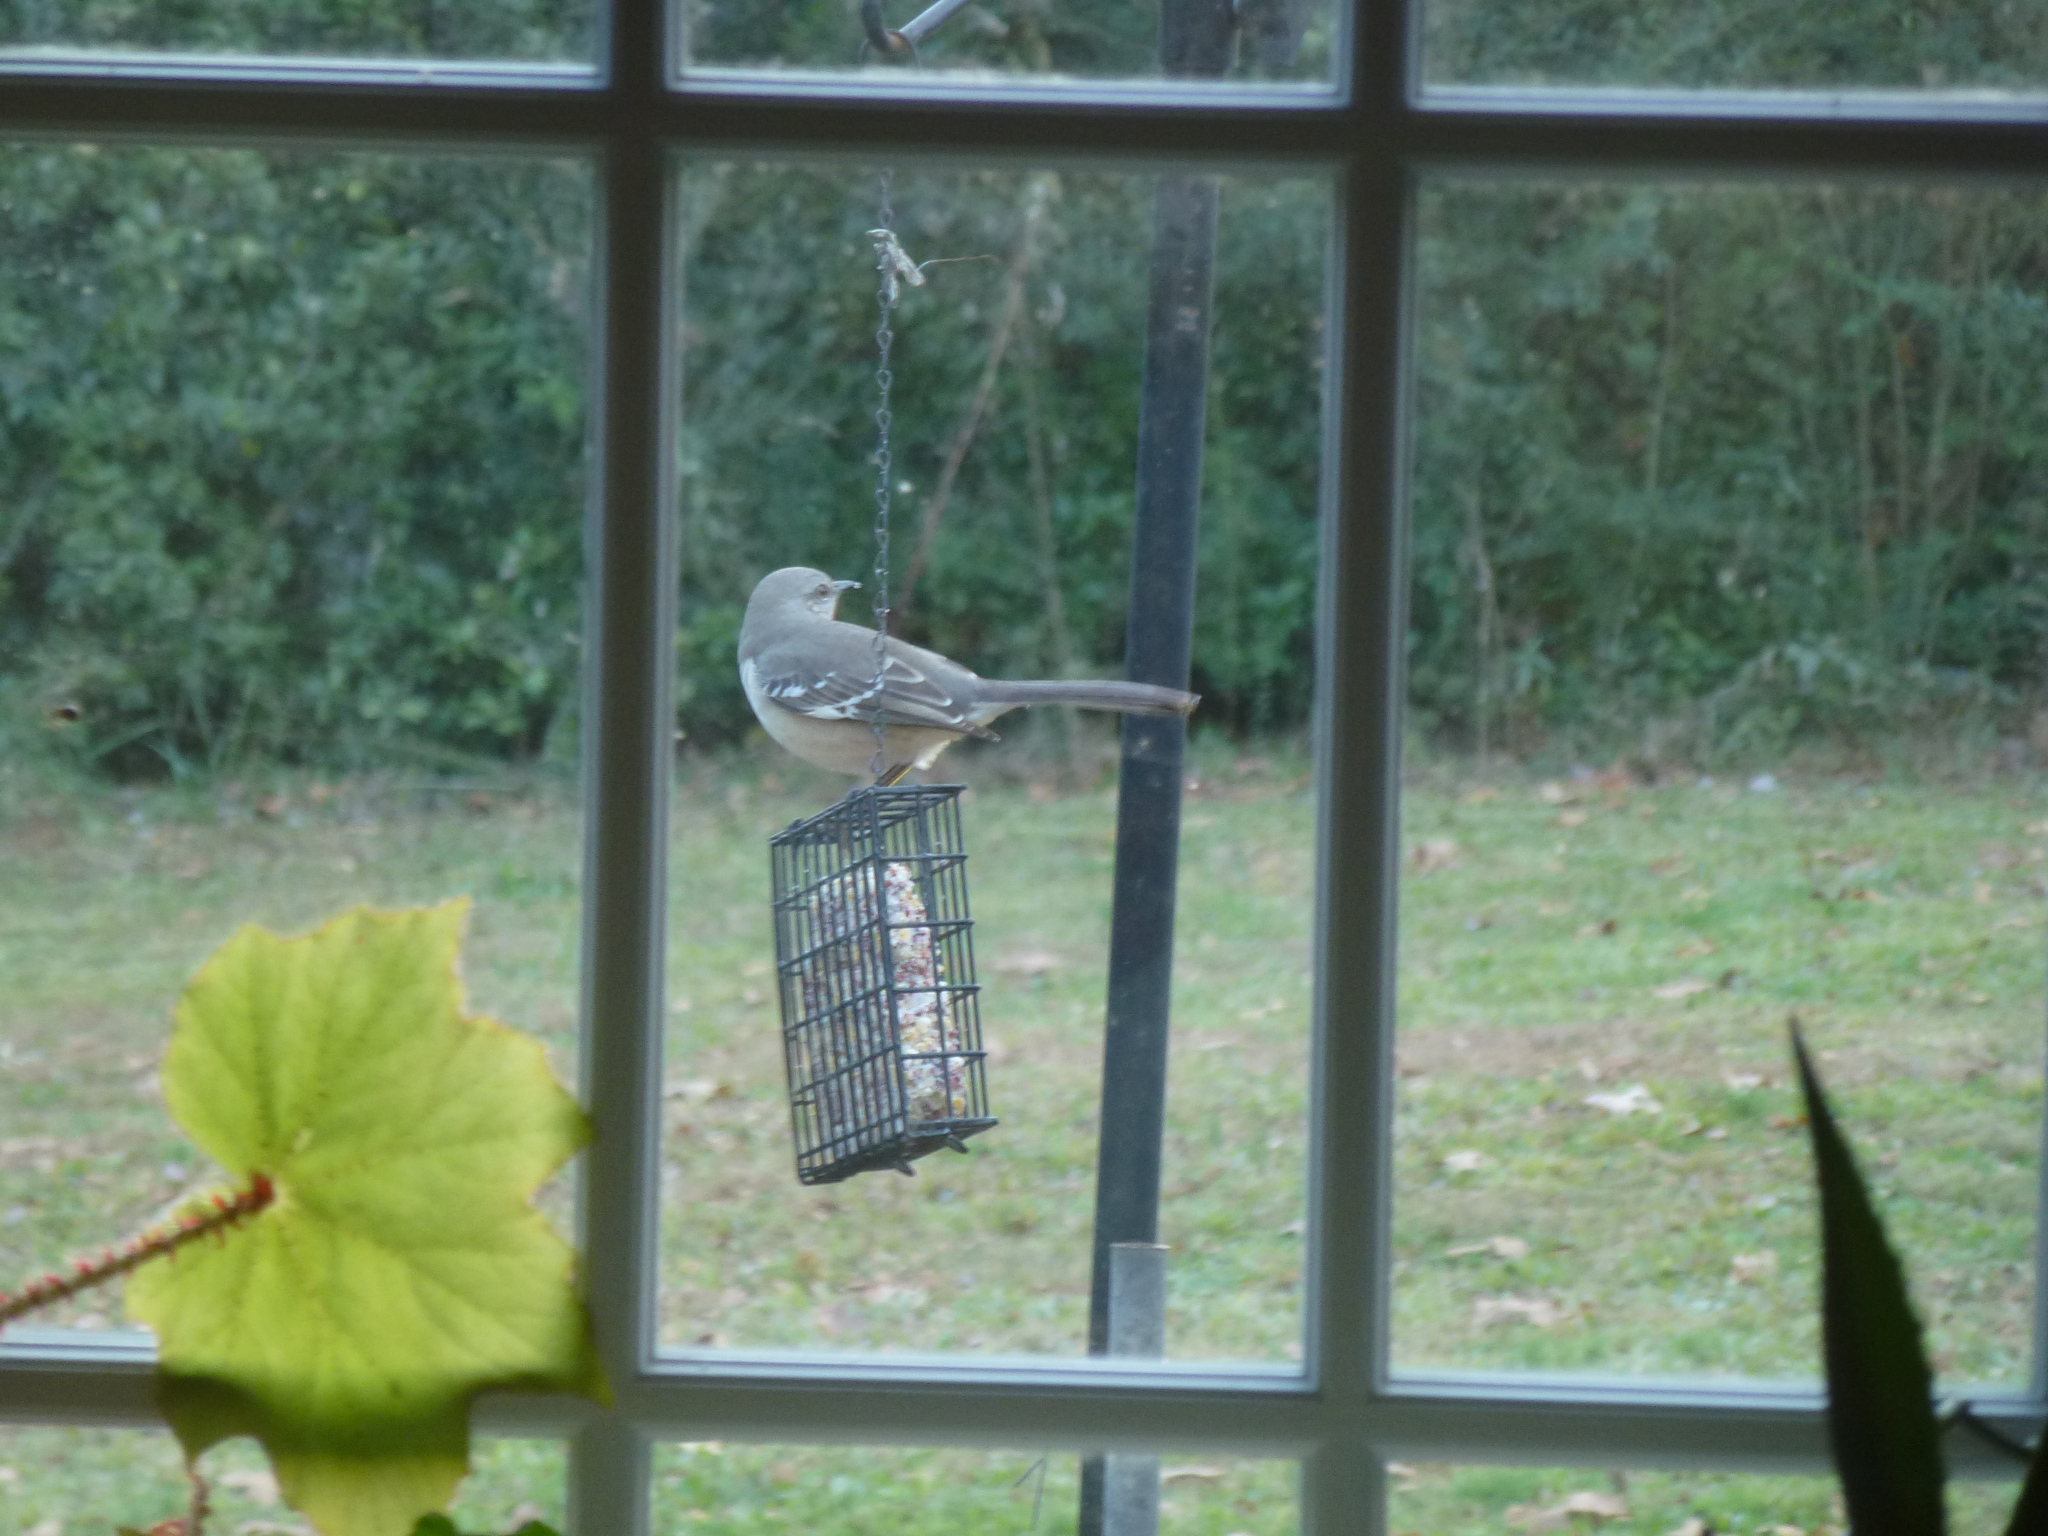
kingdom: Animalia
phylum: Chordata
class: Aves
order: Passeriformes
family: Mimidae
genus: Mimus
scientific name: Mimus polyglottos
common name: Northern mockingbird
